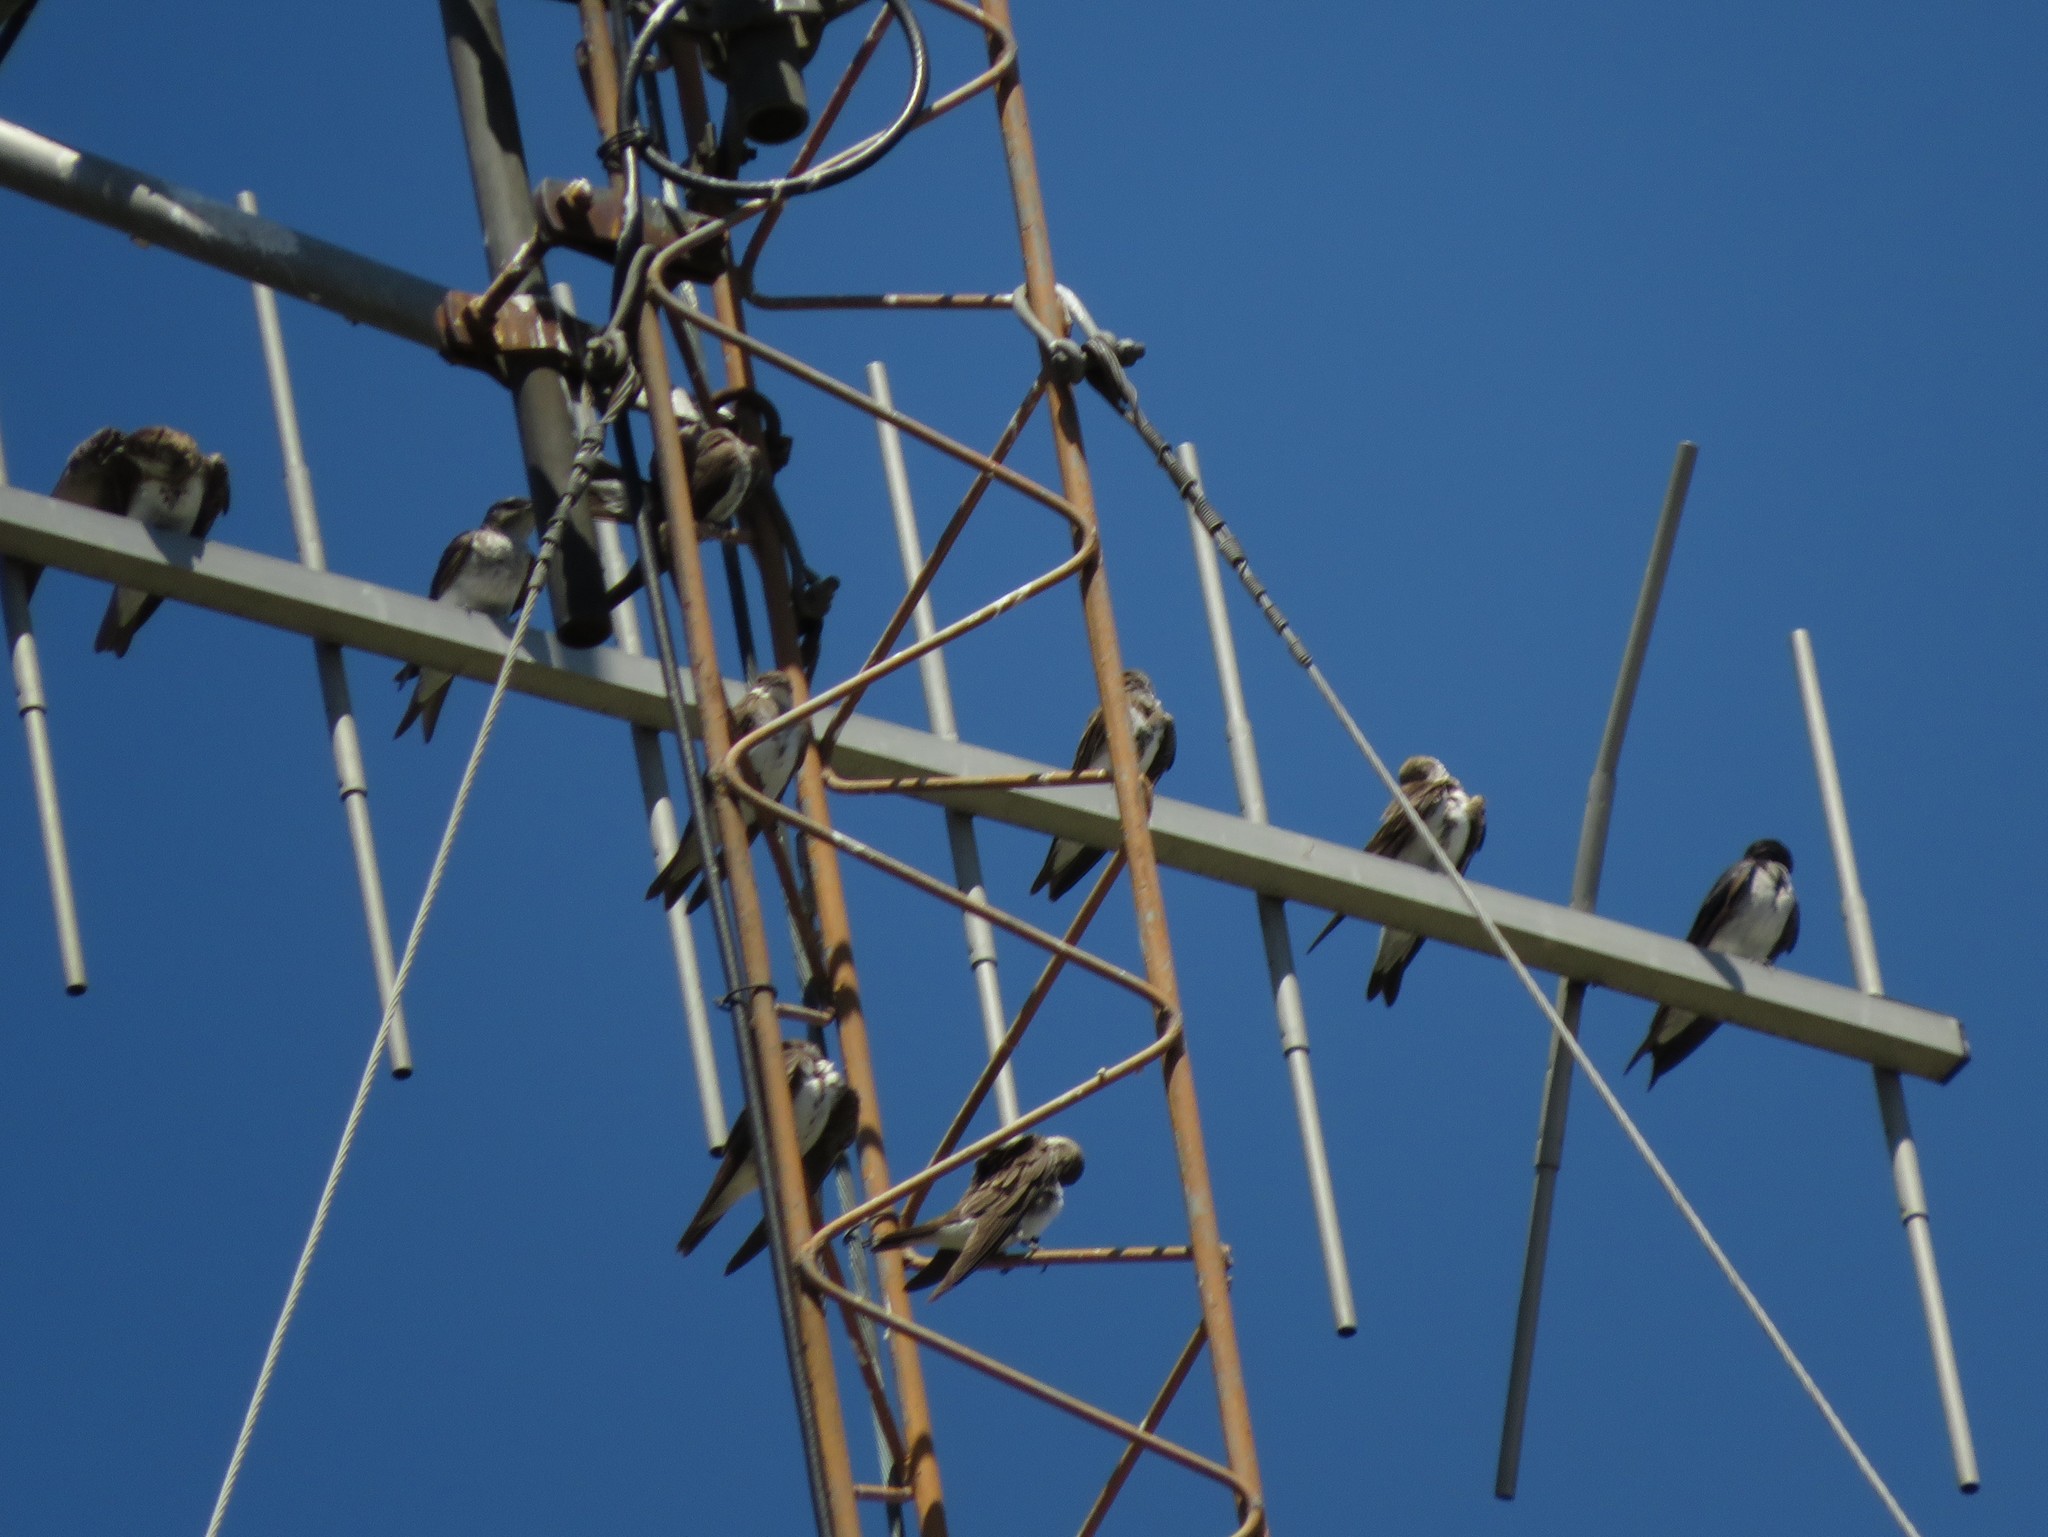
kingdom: Animalia
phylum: Chordata
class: Aves
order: Passeriformes
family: Hirundinidae
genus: Progne
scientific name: Progne tapera
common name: Brown-chested martin
